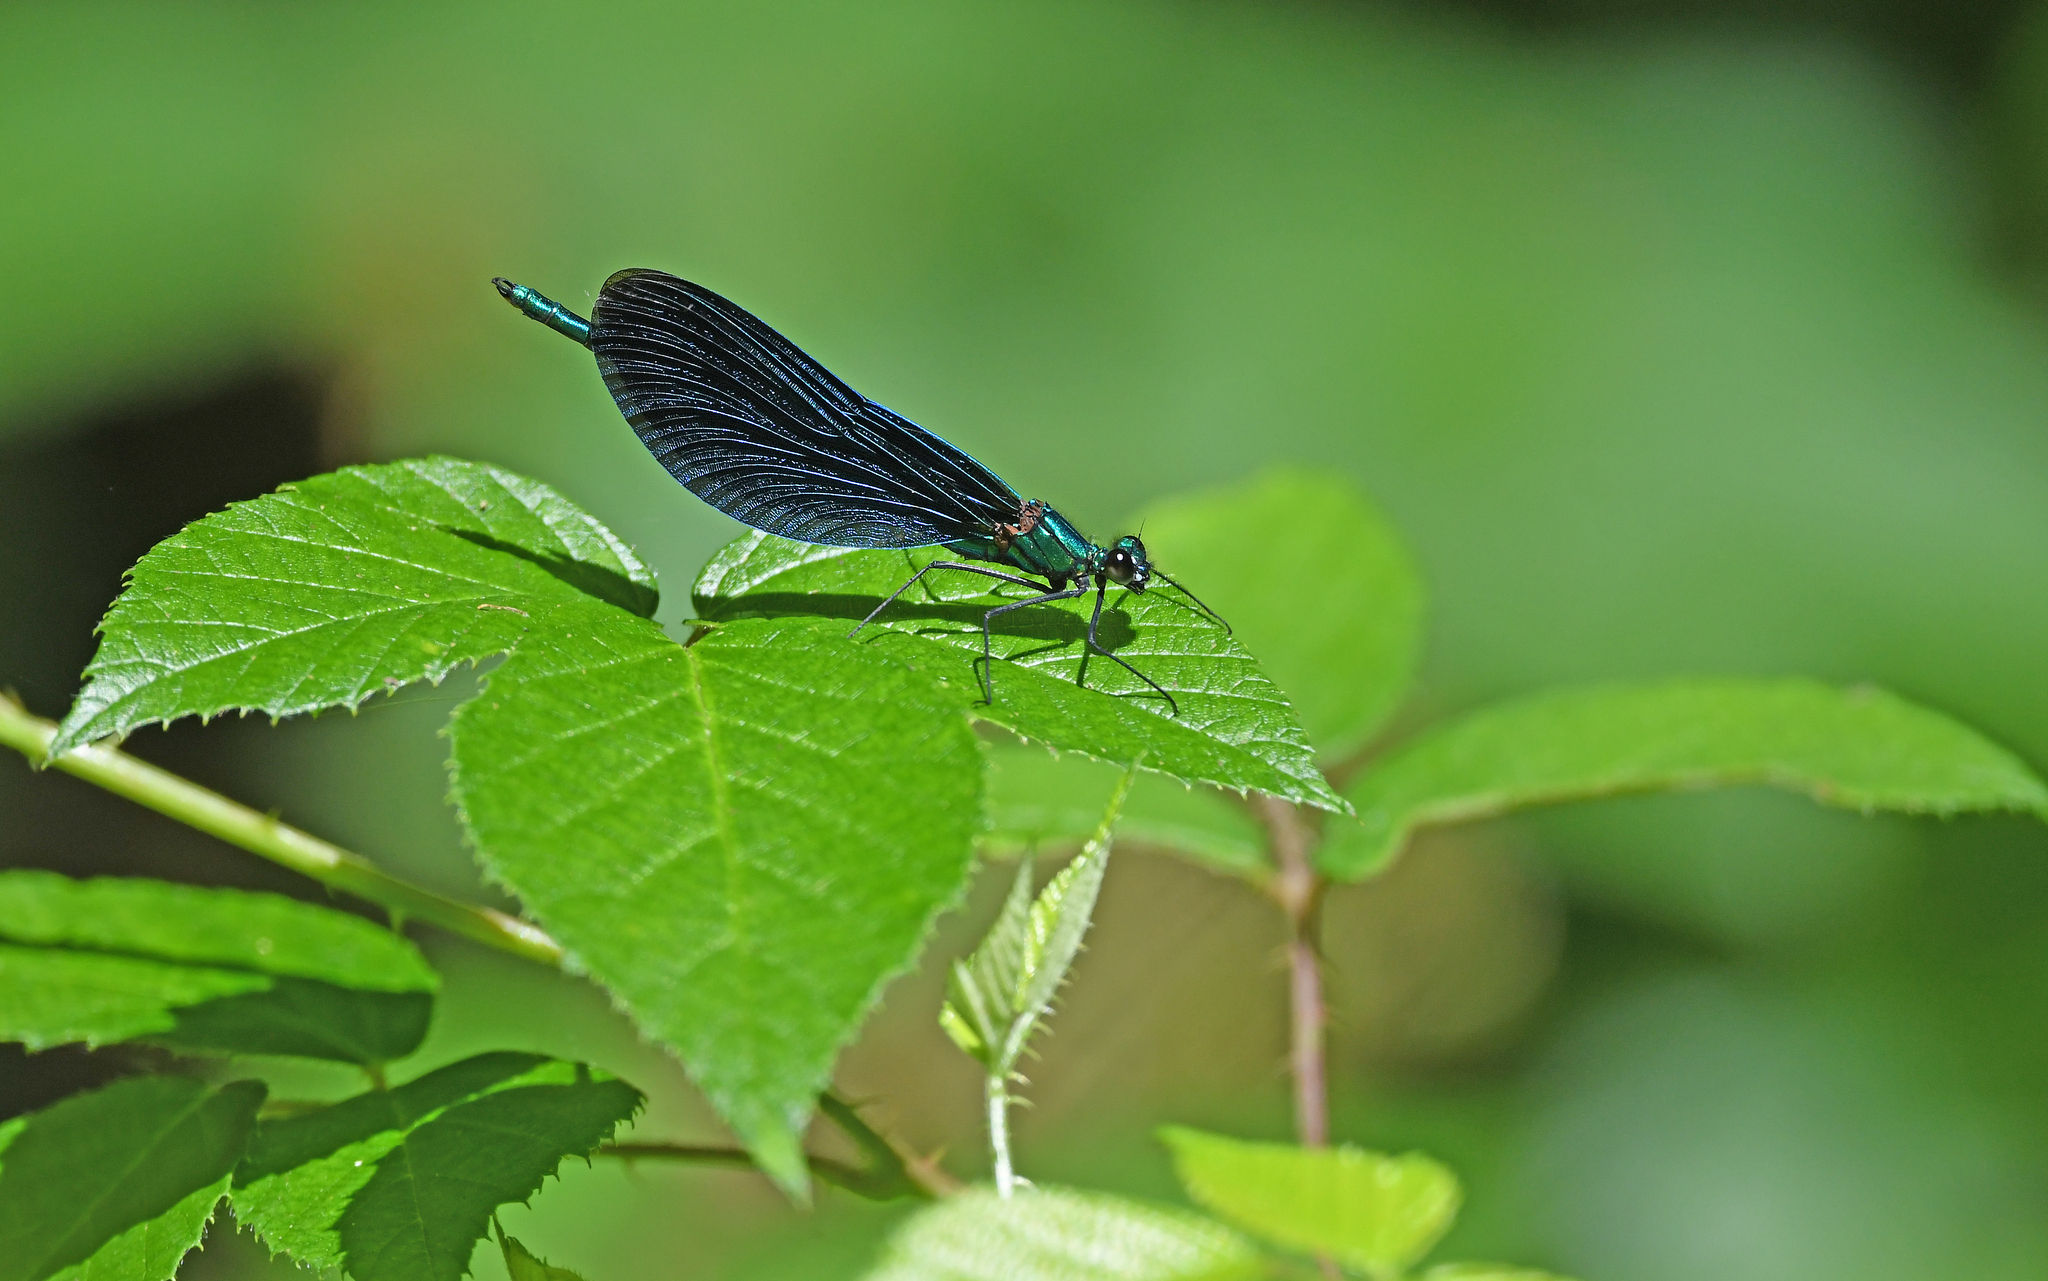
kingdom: Animalia
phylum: Arthropoda
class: Insecta
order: Odonata
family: Calopterygidae
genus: Calopteryx
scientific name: Calopteryx virgo
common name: Beautiful demoiselle
